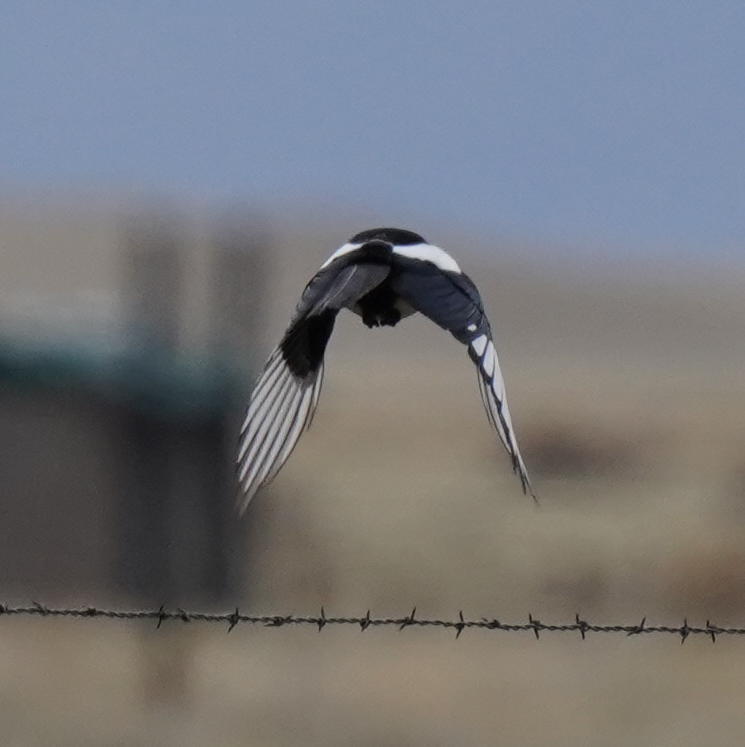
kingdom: Animalia
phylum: Chordata
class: Aves
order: Passeriformes
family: Corvidae
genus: Pica
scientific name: Pica hudsonia
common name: Black-billed magpie
